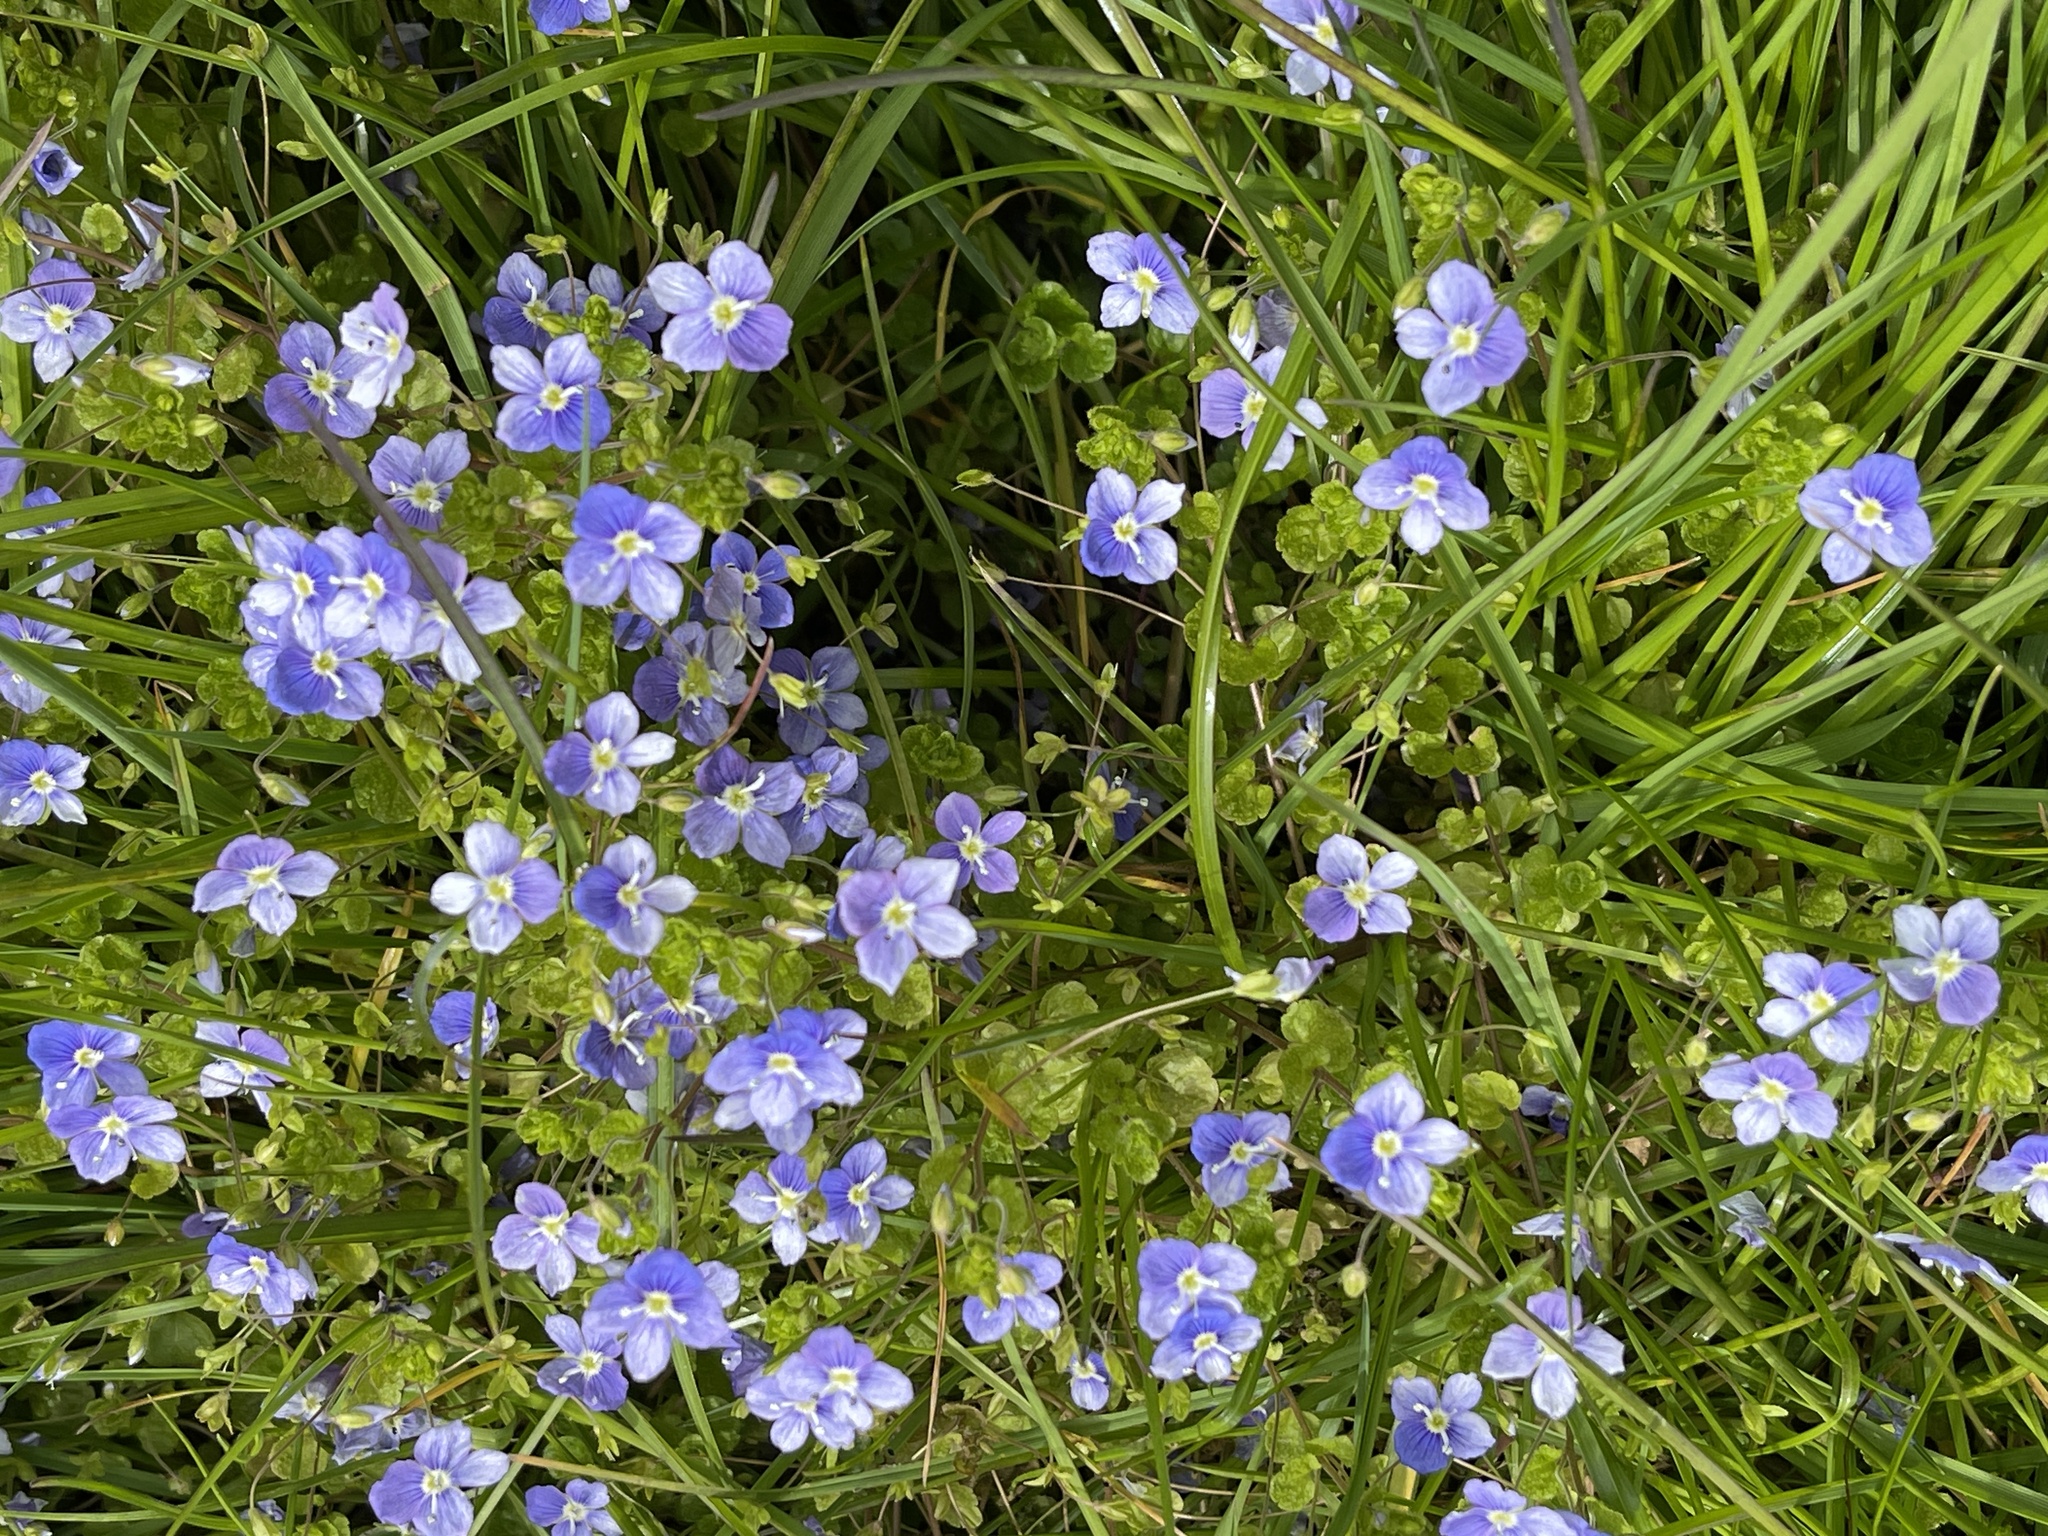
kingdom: Plantae
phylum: Tracheophyta
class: Magnoliopsida
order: Lamiales
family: Plantaginaceae
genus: Veronica
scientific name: Veronica filiformis
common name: Slender speedwell
